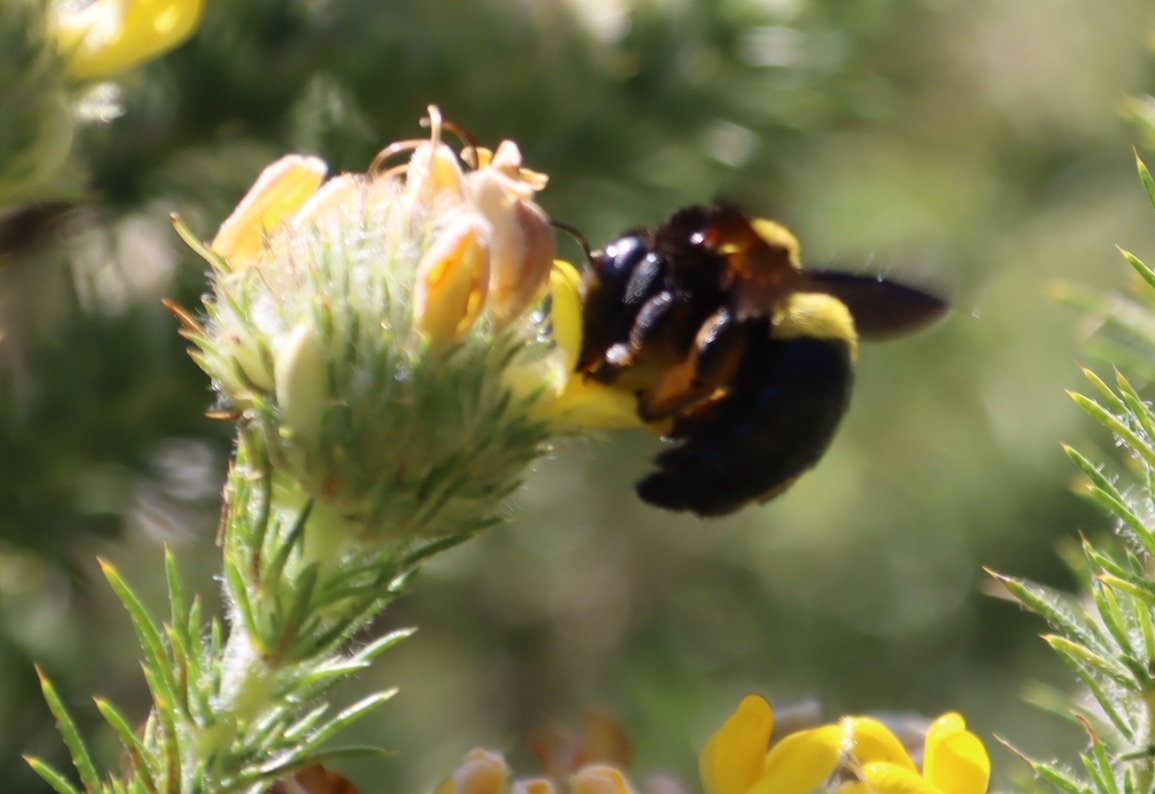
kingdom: Animalia
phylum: Arthropoda
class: Insecta
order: Hymenoptera
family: Apidae
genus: Xylocopa
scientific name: Xylocopa caffra
